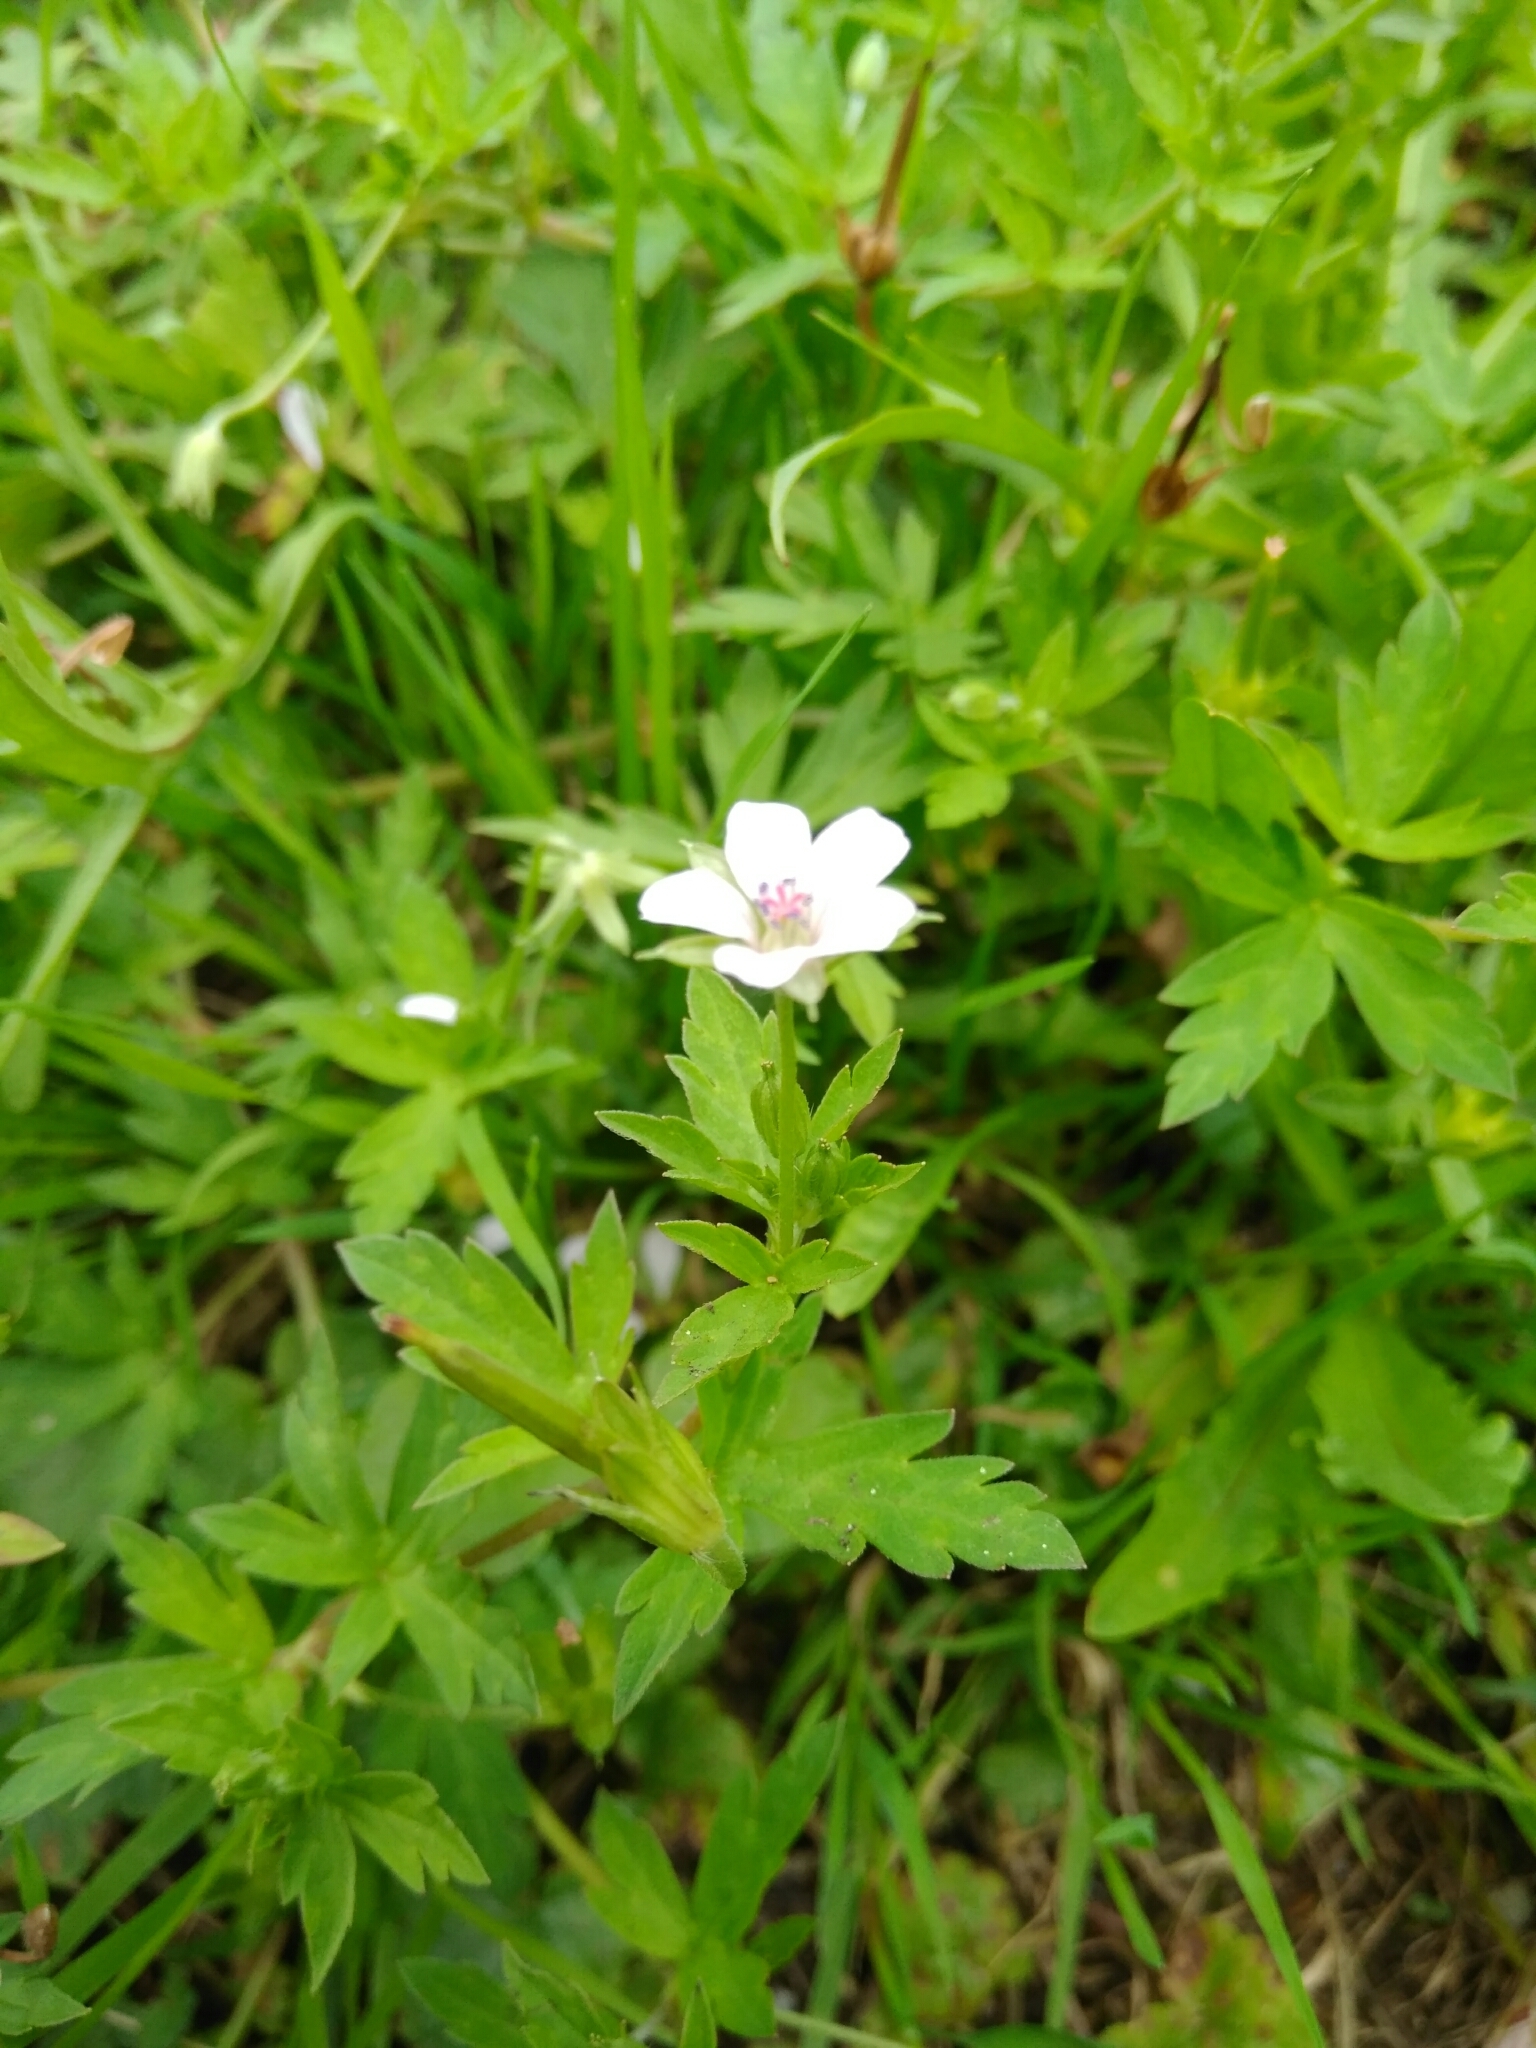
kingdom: Plantae
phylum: Tracheophyta
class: Magnoliopsida
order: Geraniales
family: Geraniaceae
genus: Geranium
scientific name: Geranium sibiricum
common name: Siberian crane's-bill
